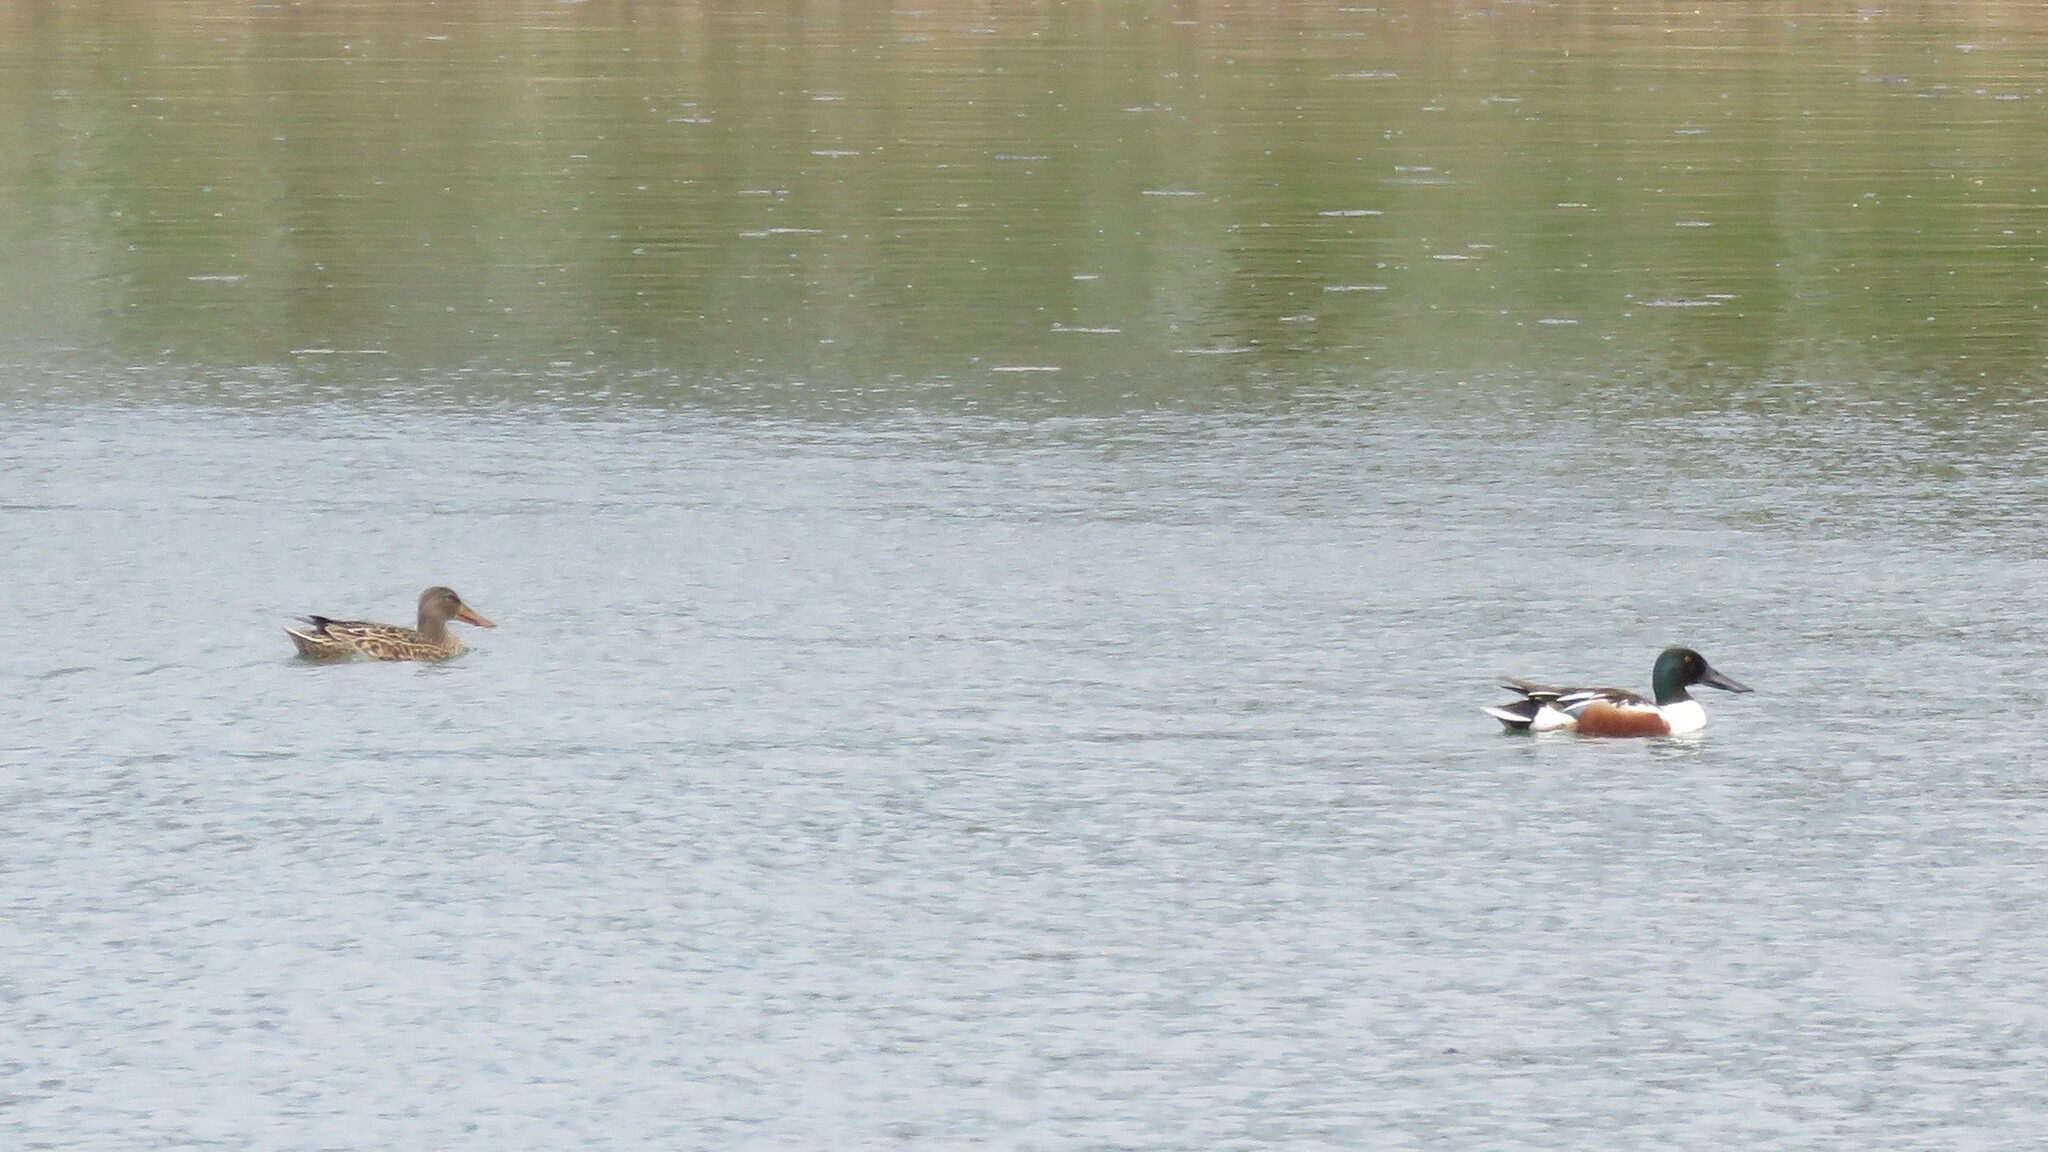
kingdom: Animalia
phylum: Chordata
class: Aves
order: Anseriformes
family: Anatidae
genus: Spatula
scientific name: Spatula clypeata
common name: Northern shoveler
